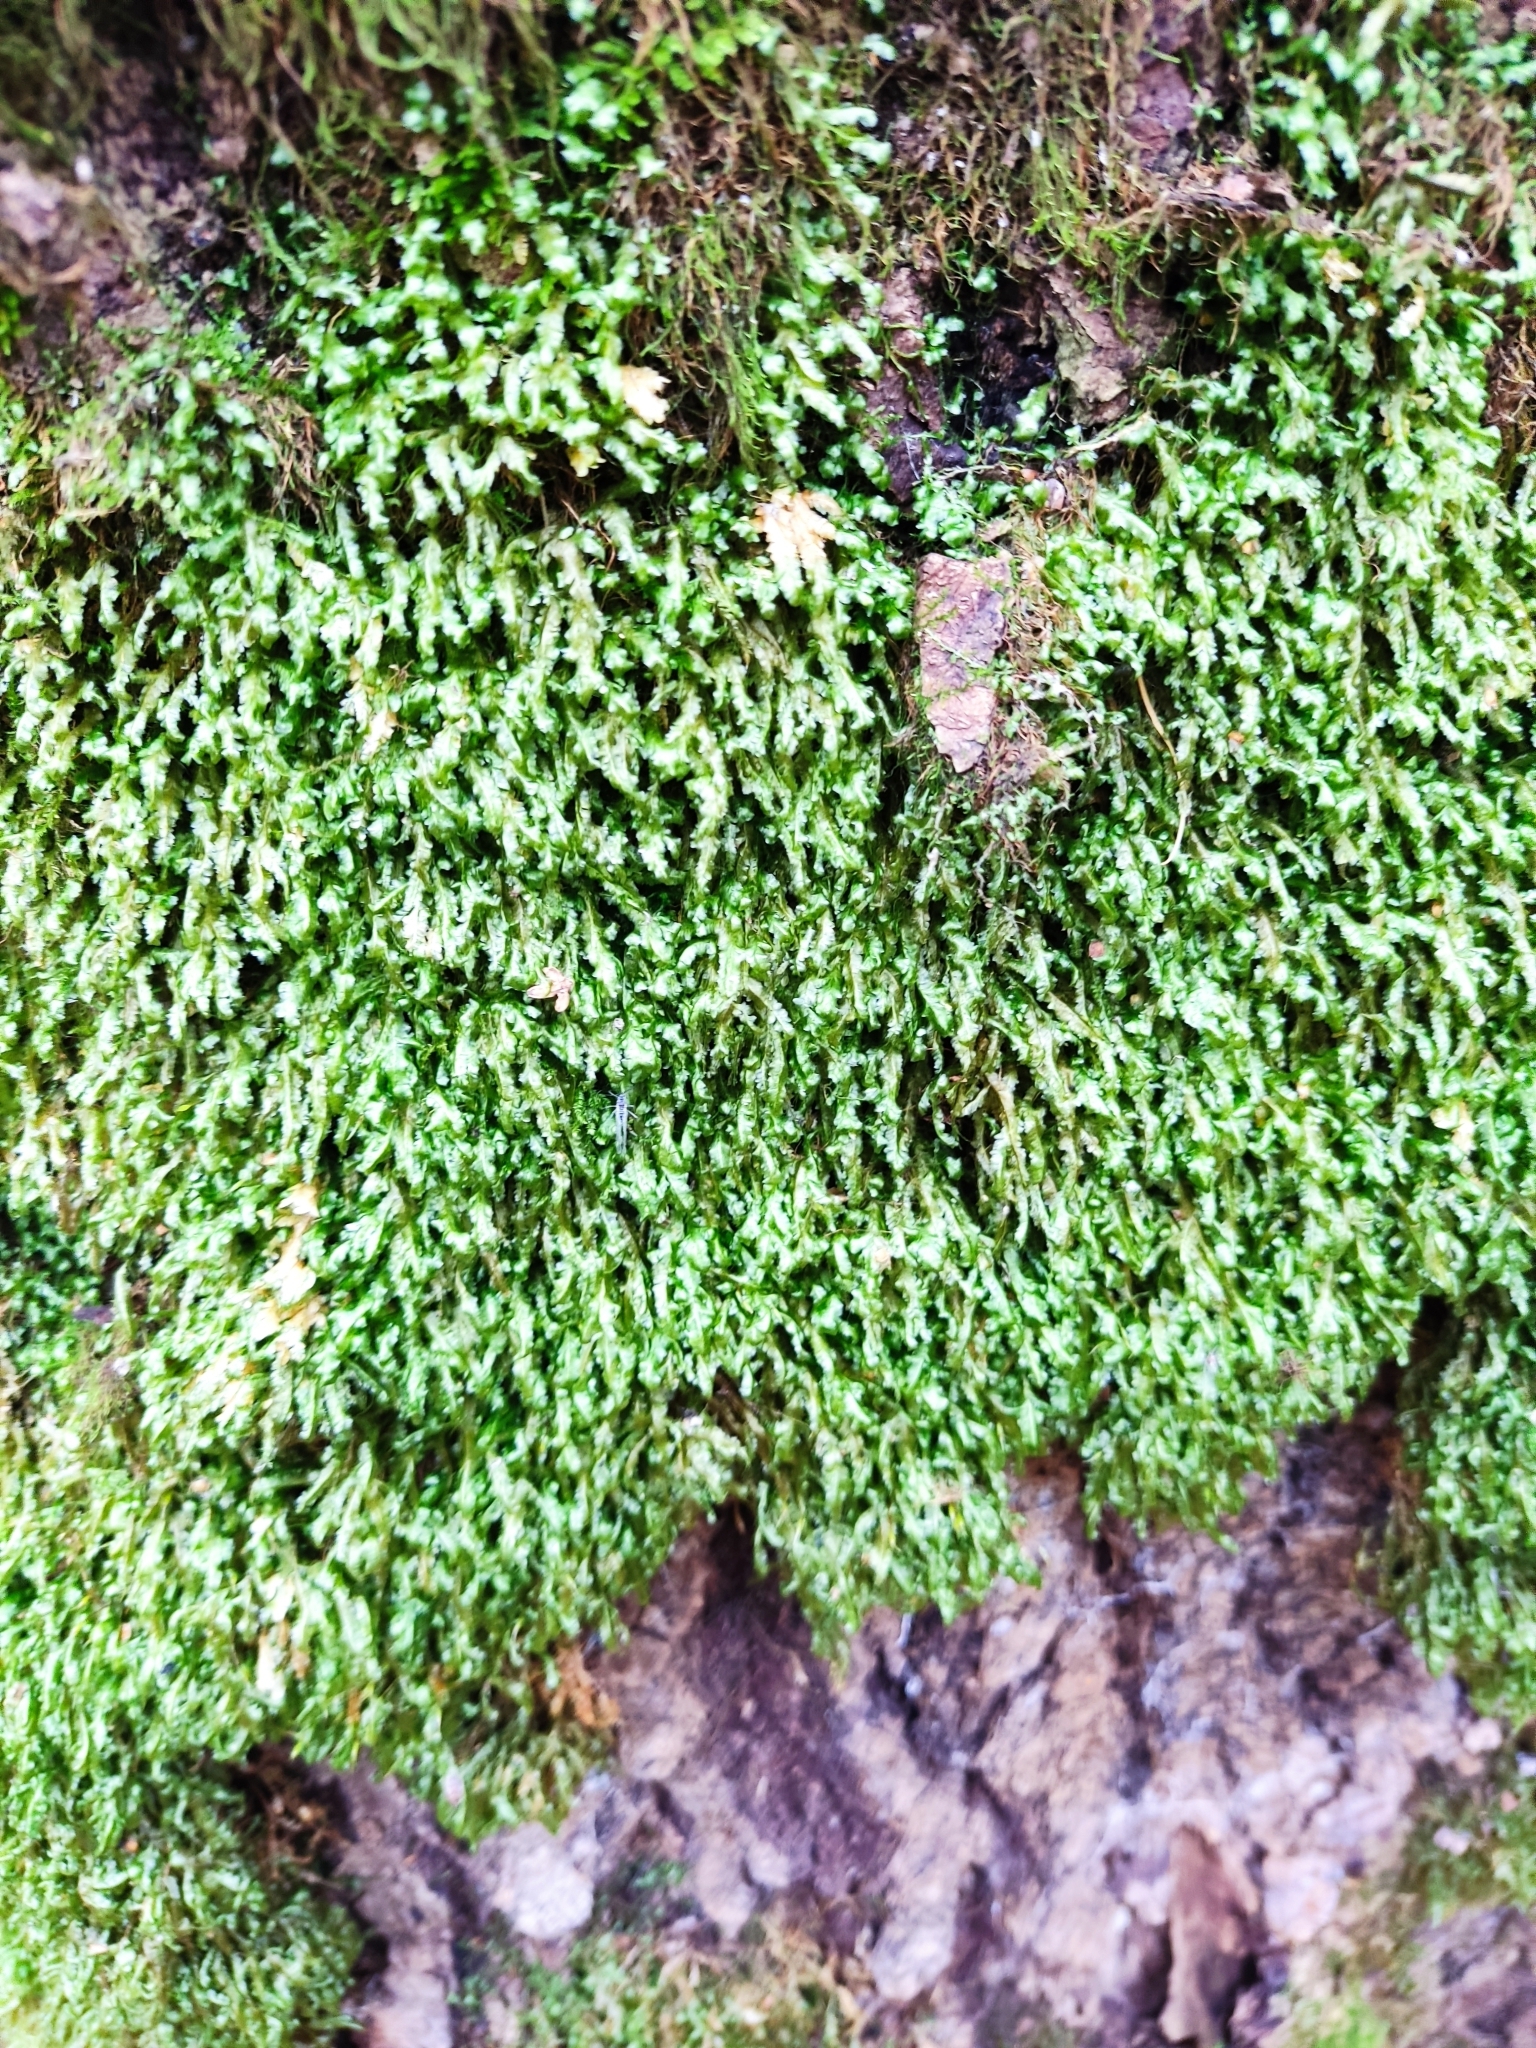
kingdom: Plantae
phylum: Bryophyta
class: Bryopsida
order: Hypnales
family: Neckeraceae
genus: Homalia
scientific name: Homalia trichomanoides
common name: Lime homalia moss
